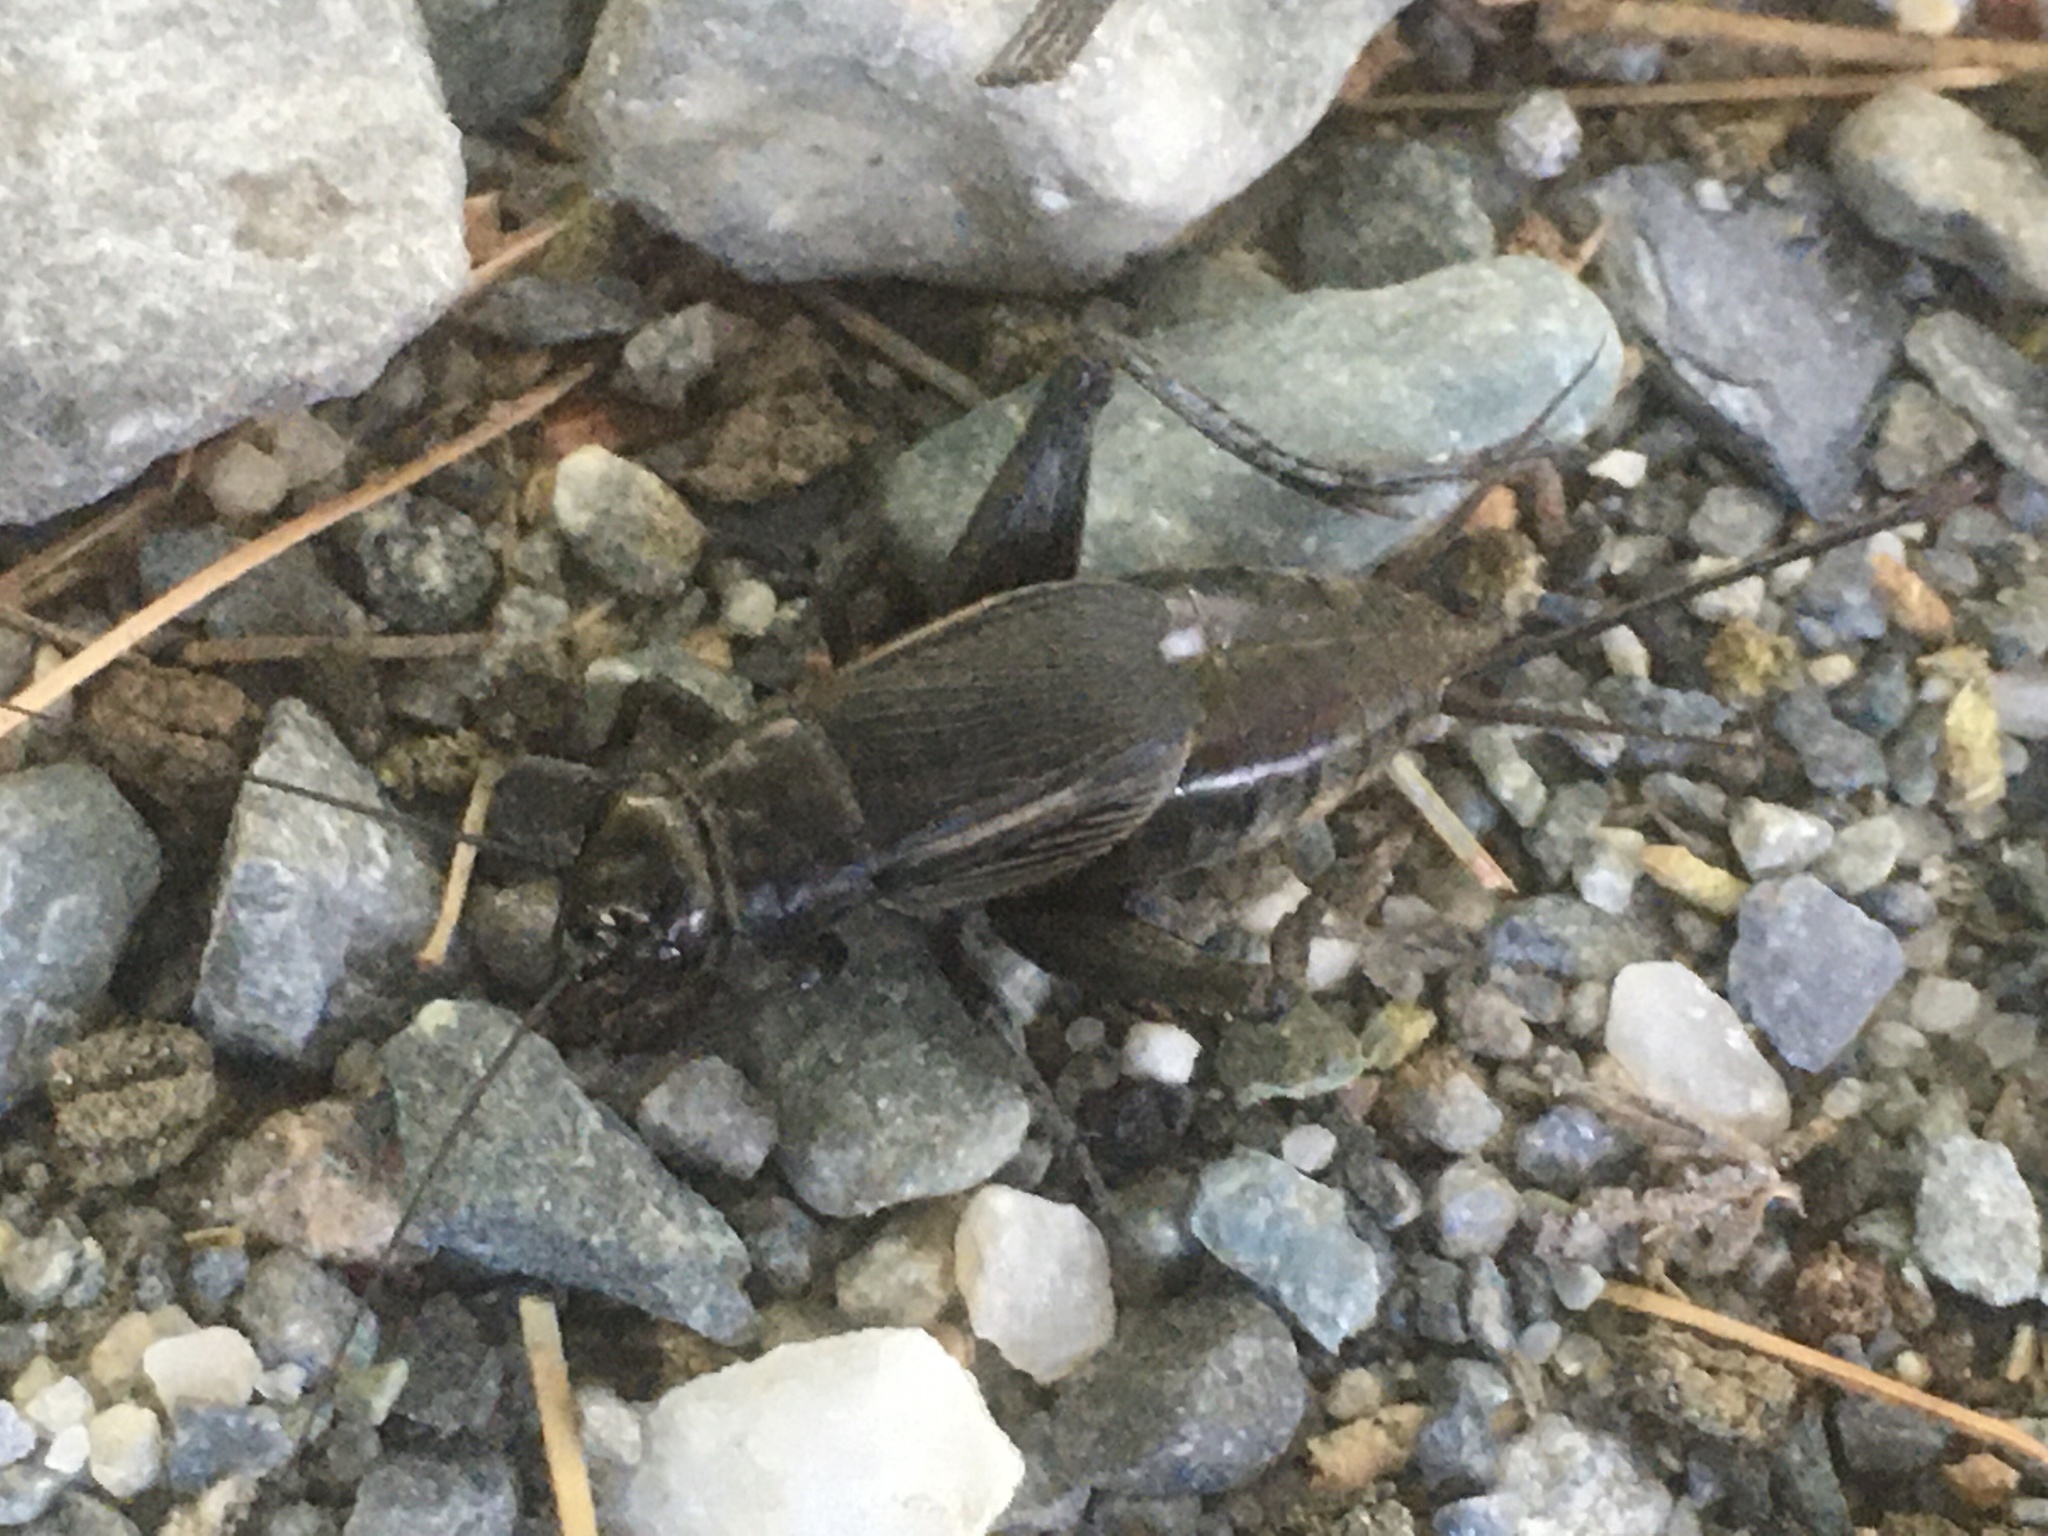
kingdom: Animalia
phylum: Arthropoda
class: Insecta
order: Orthoptera
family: Gryllidae
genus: Gryllus
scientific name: Gryllus pennsylvanicus
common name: Fall field cricket
